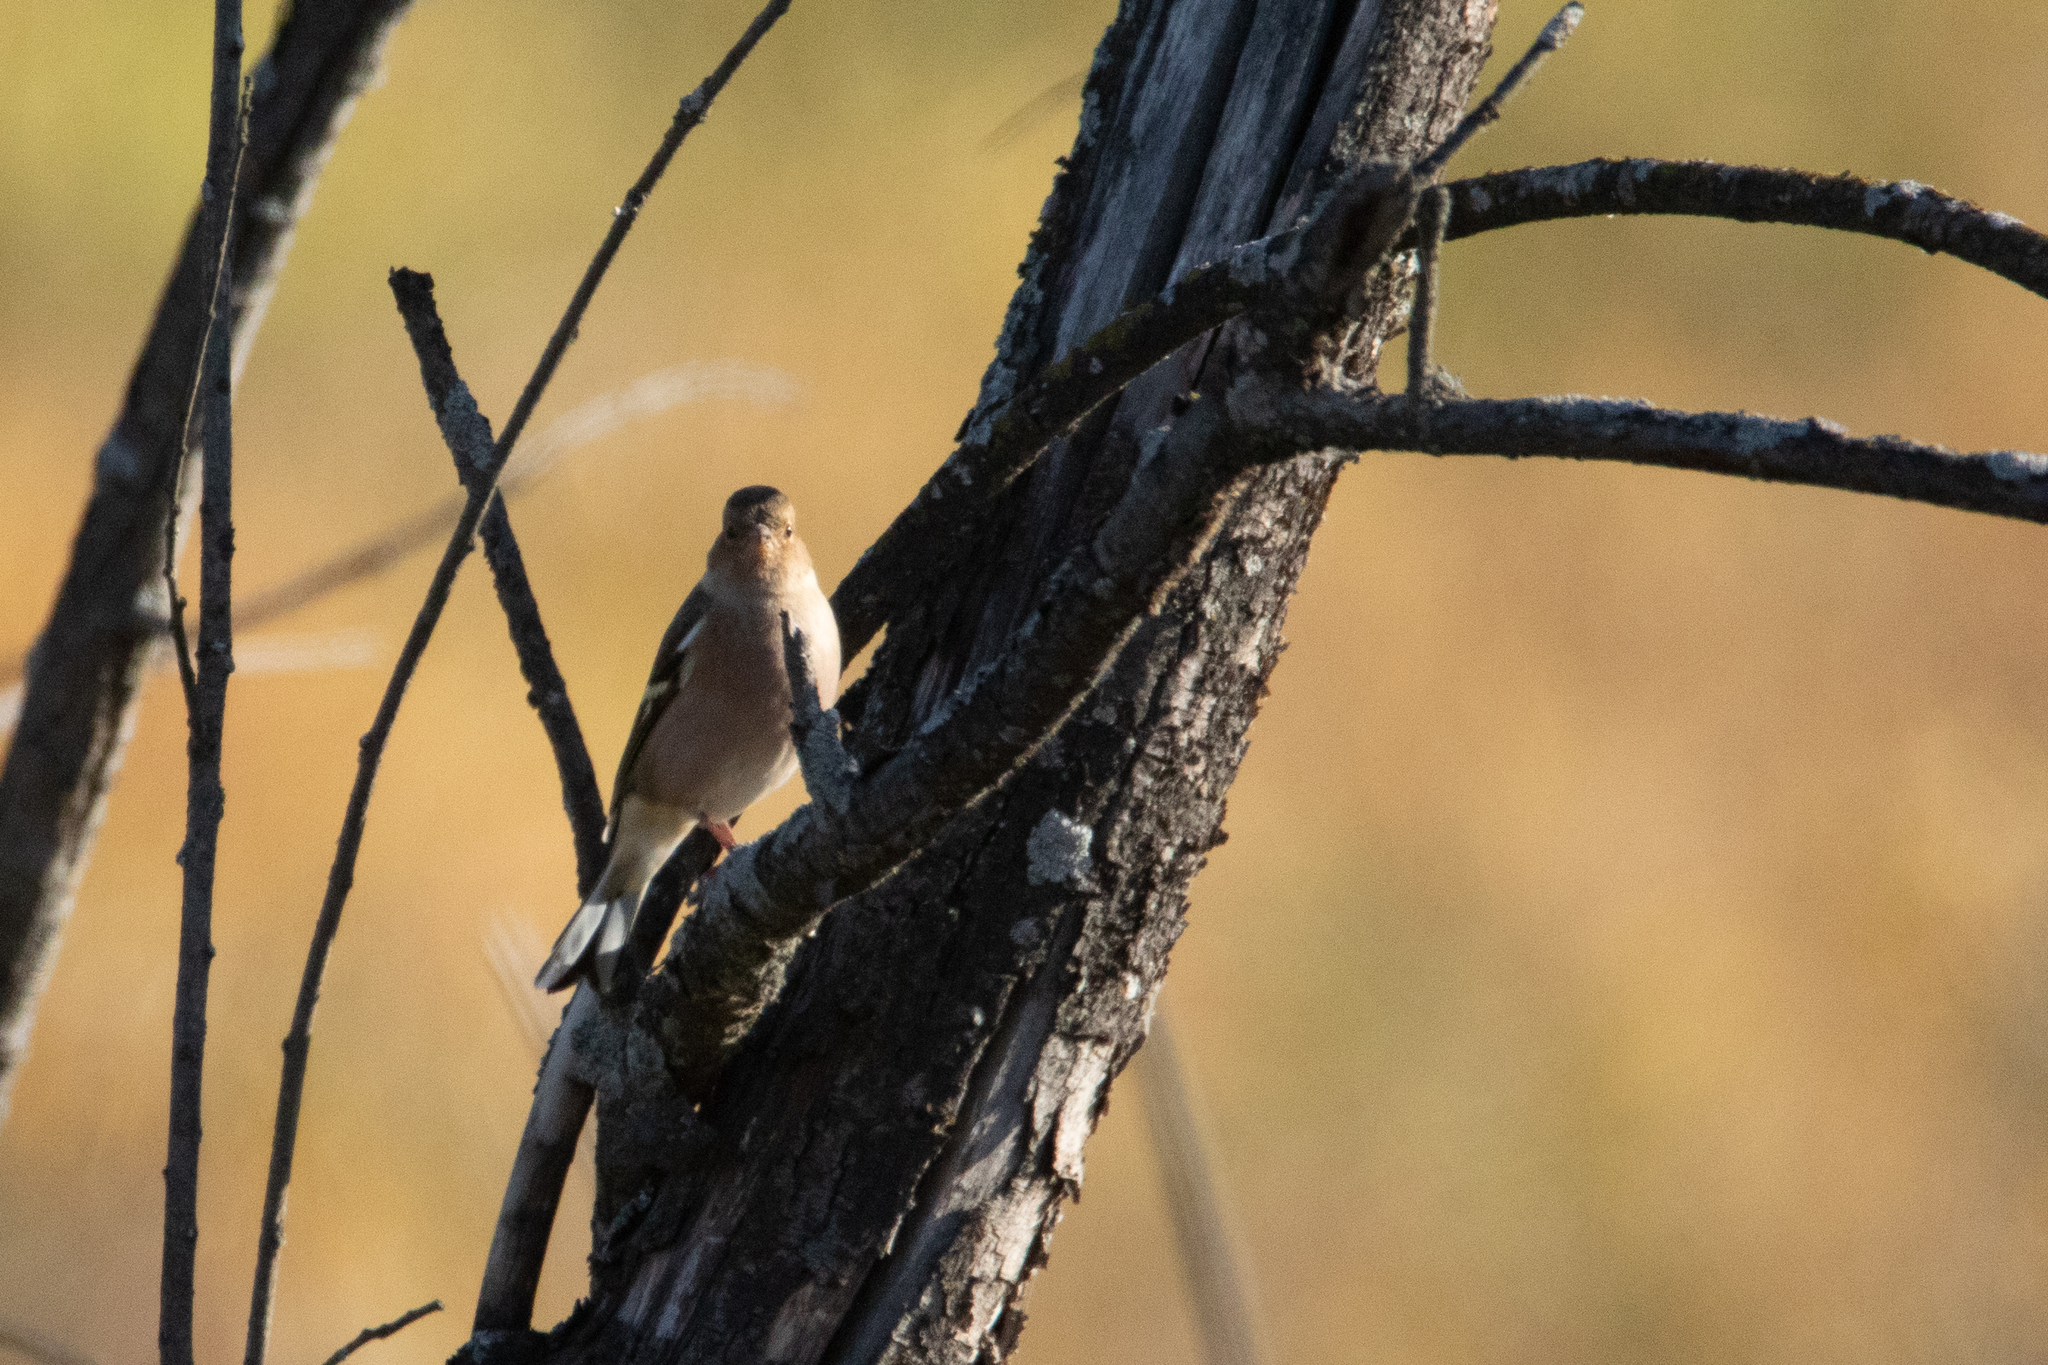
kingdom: Animalia
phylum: Chordata
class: Aves
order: Passeriformes
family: Fringillidae
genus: Fringilla
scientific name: Fringilla coelebs
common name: Common chaffinch
